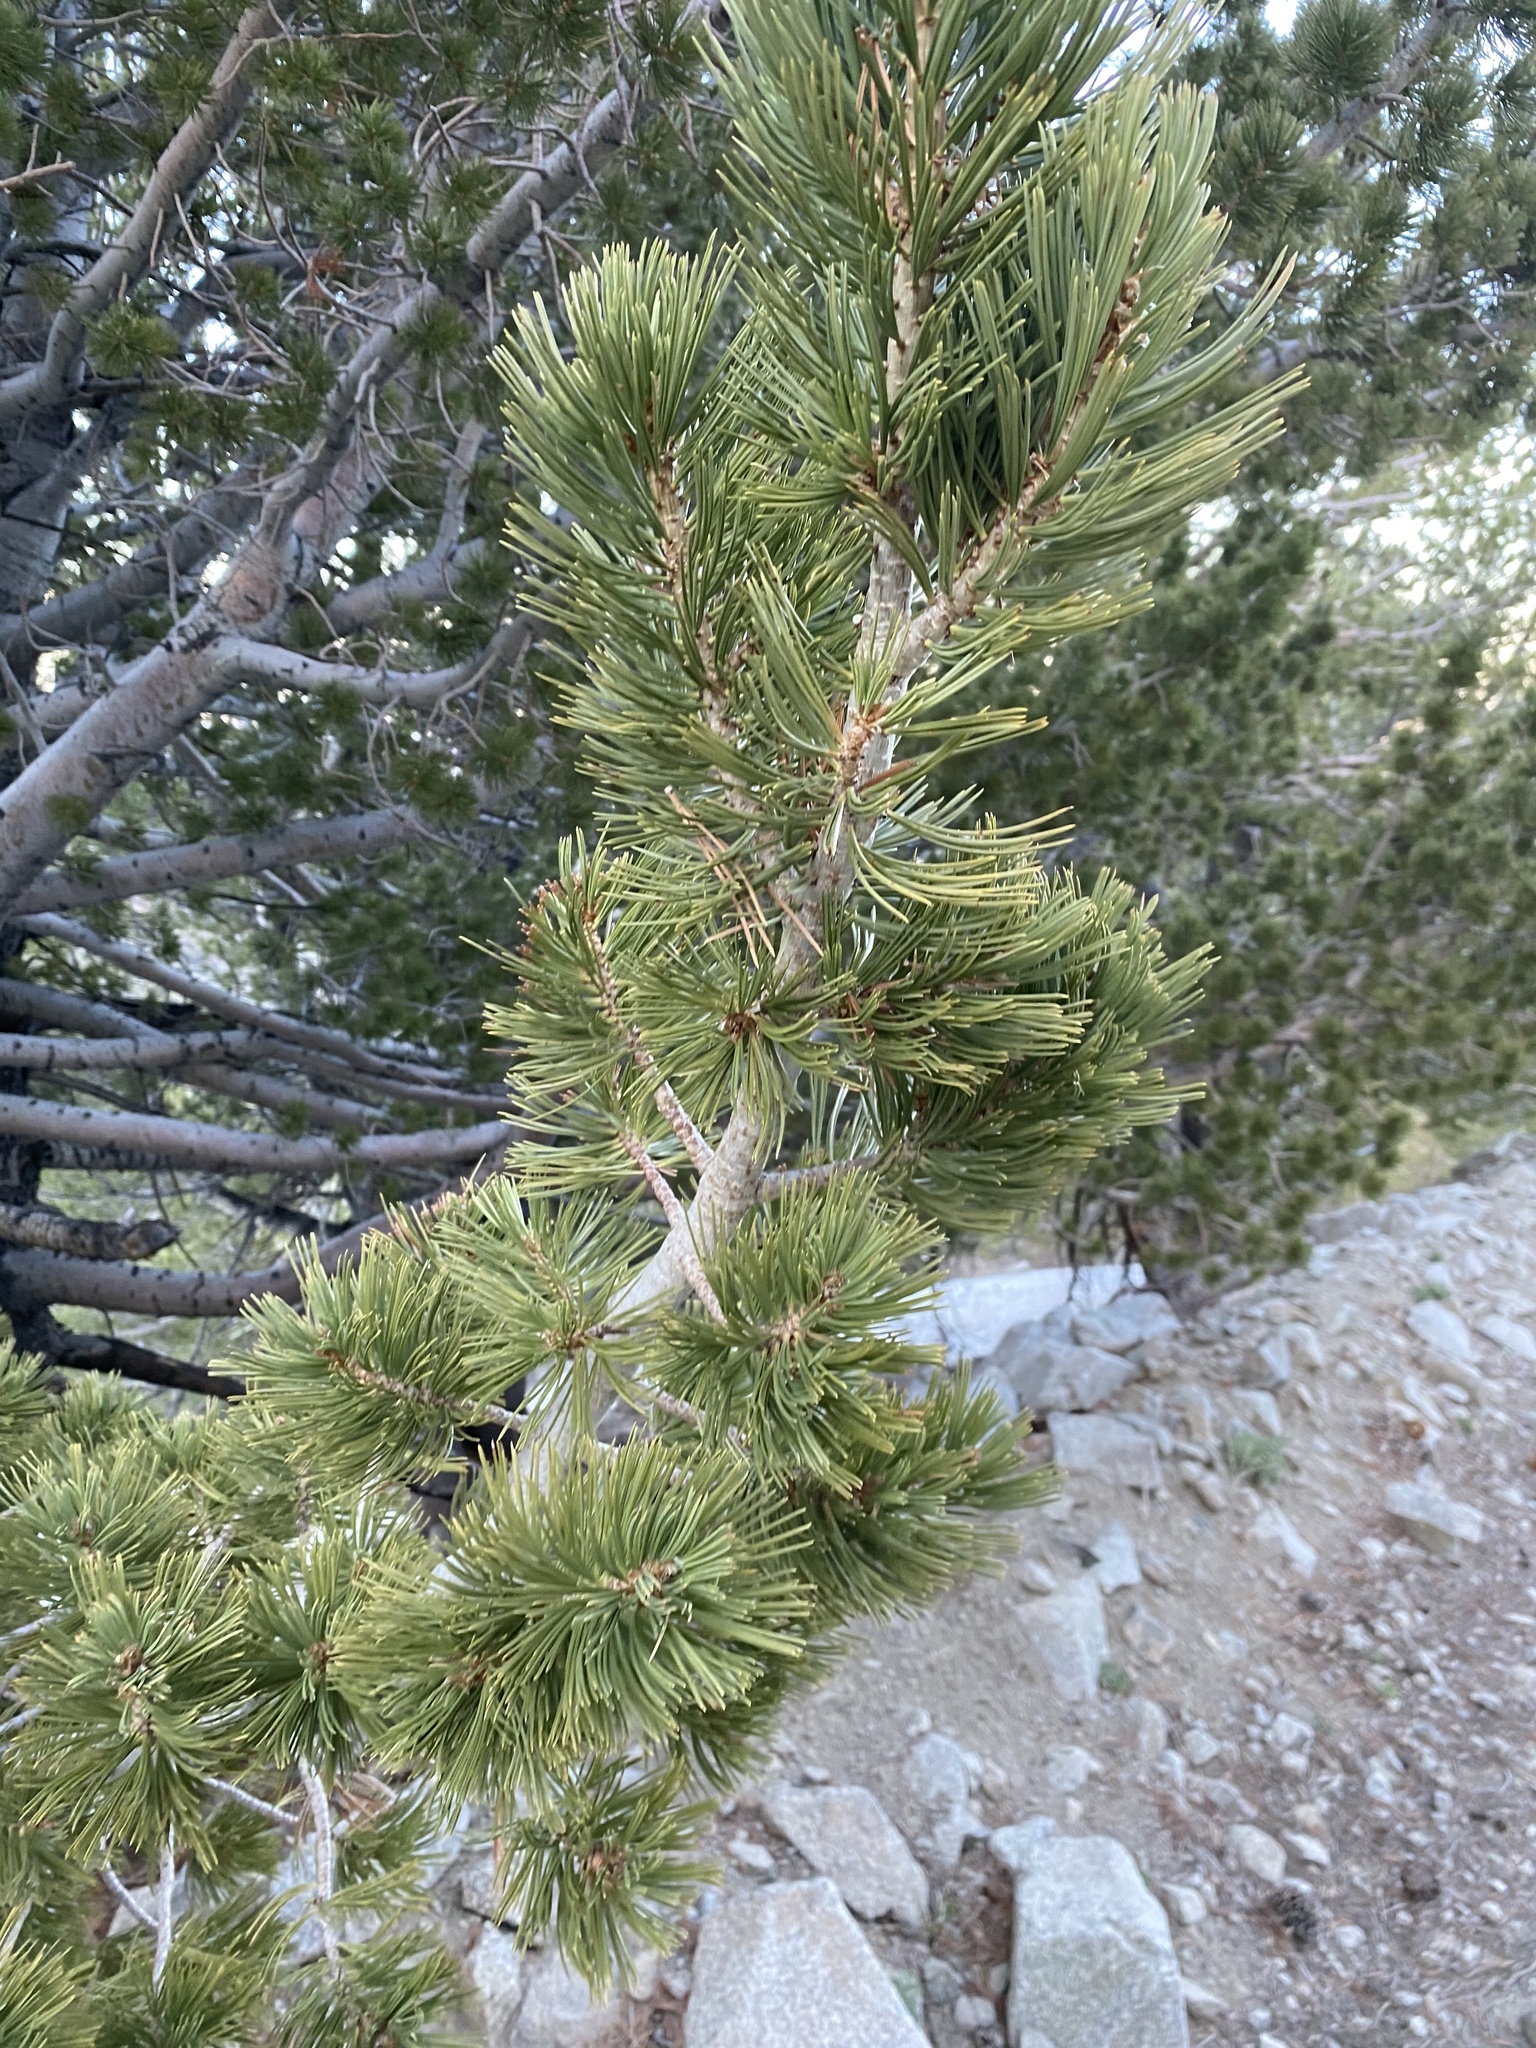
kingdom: Plantae
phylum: Tracheophyta
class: Pinopsida
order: Pinales
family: Pinaceae
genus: Pinus
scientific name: Pinus flexilis
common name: Limber pine
